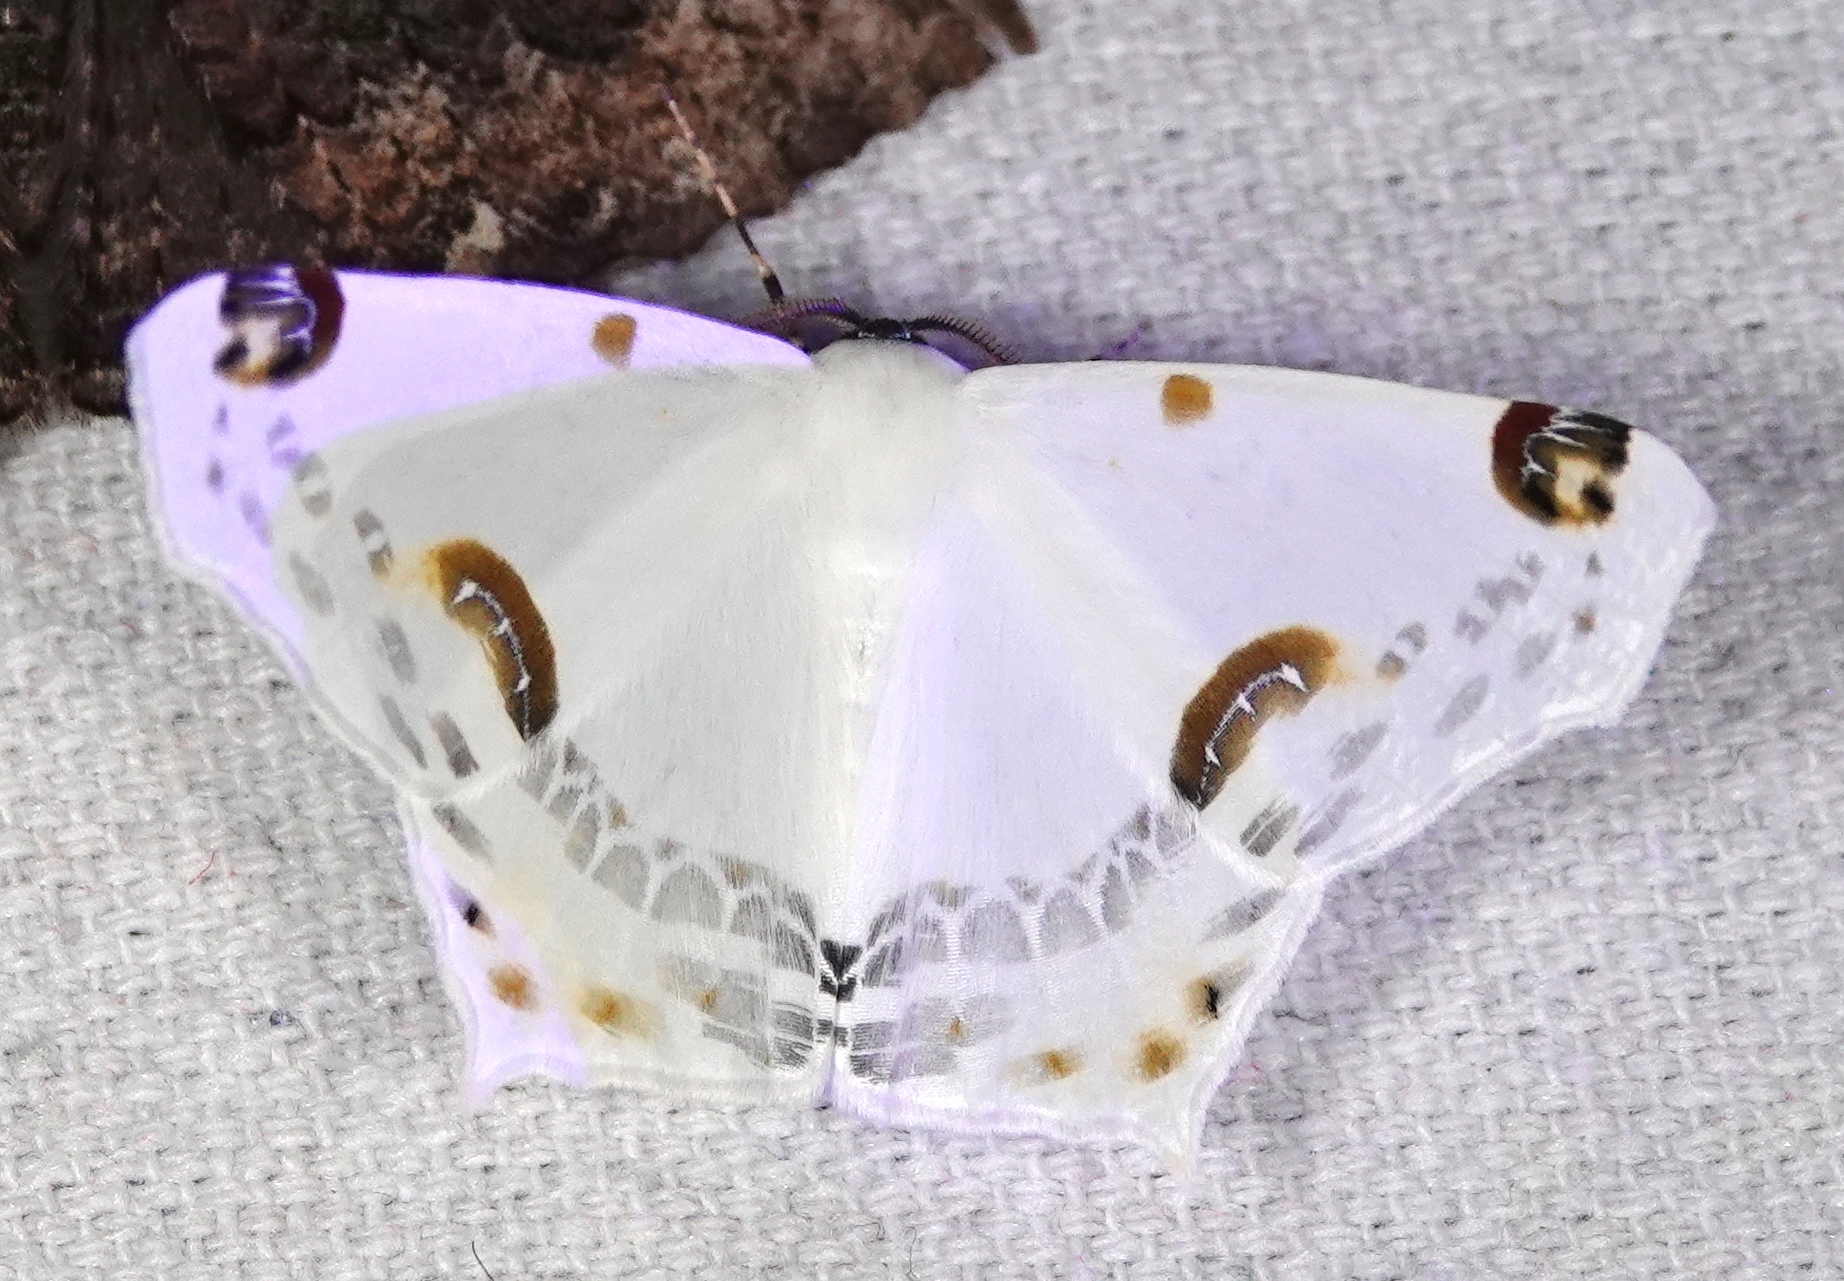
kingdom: Animalia
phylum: Arthropoda
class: Insecta
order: Lepidoptera
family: Geometridae
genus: Sericoptera
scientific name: Sericoptera mahometaria
